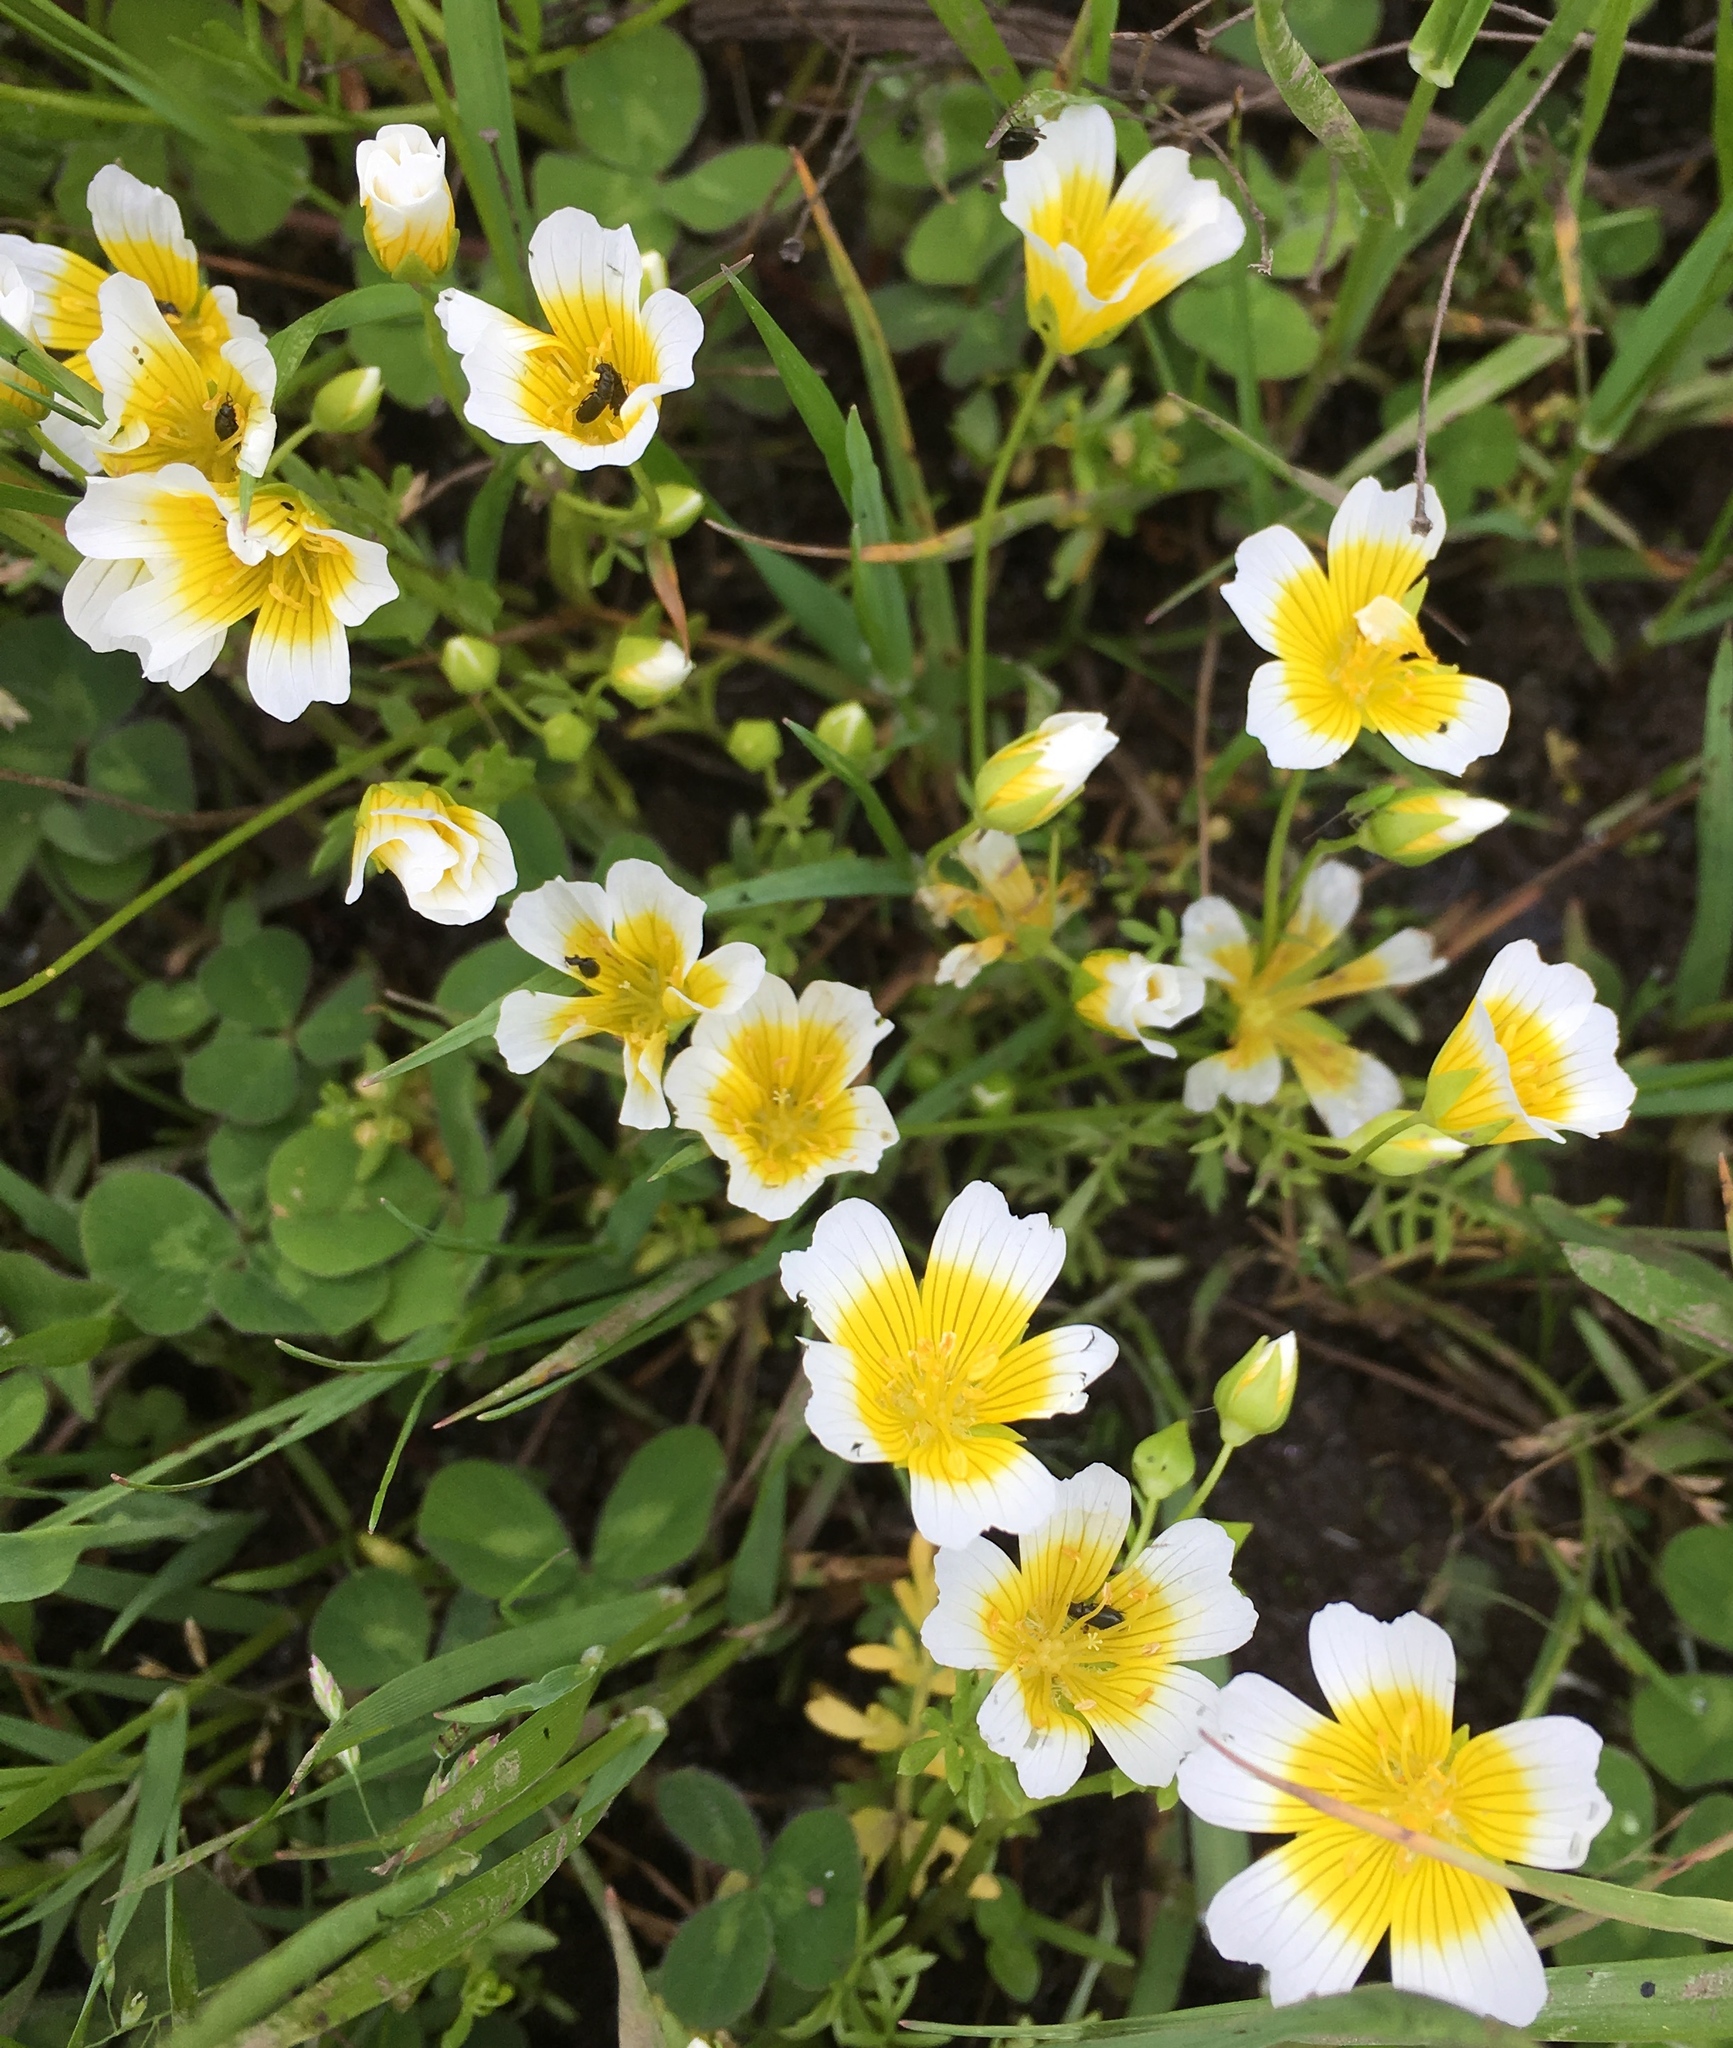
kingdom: Plantae
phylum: Tracheophyta
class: Magnoliopsida
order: Brassicales
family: Limnanthaceae
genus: Limnanthes
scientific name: Limnanthes douglasii
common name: Meadow-foam
